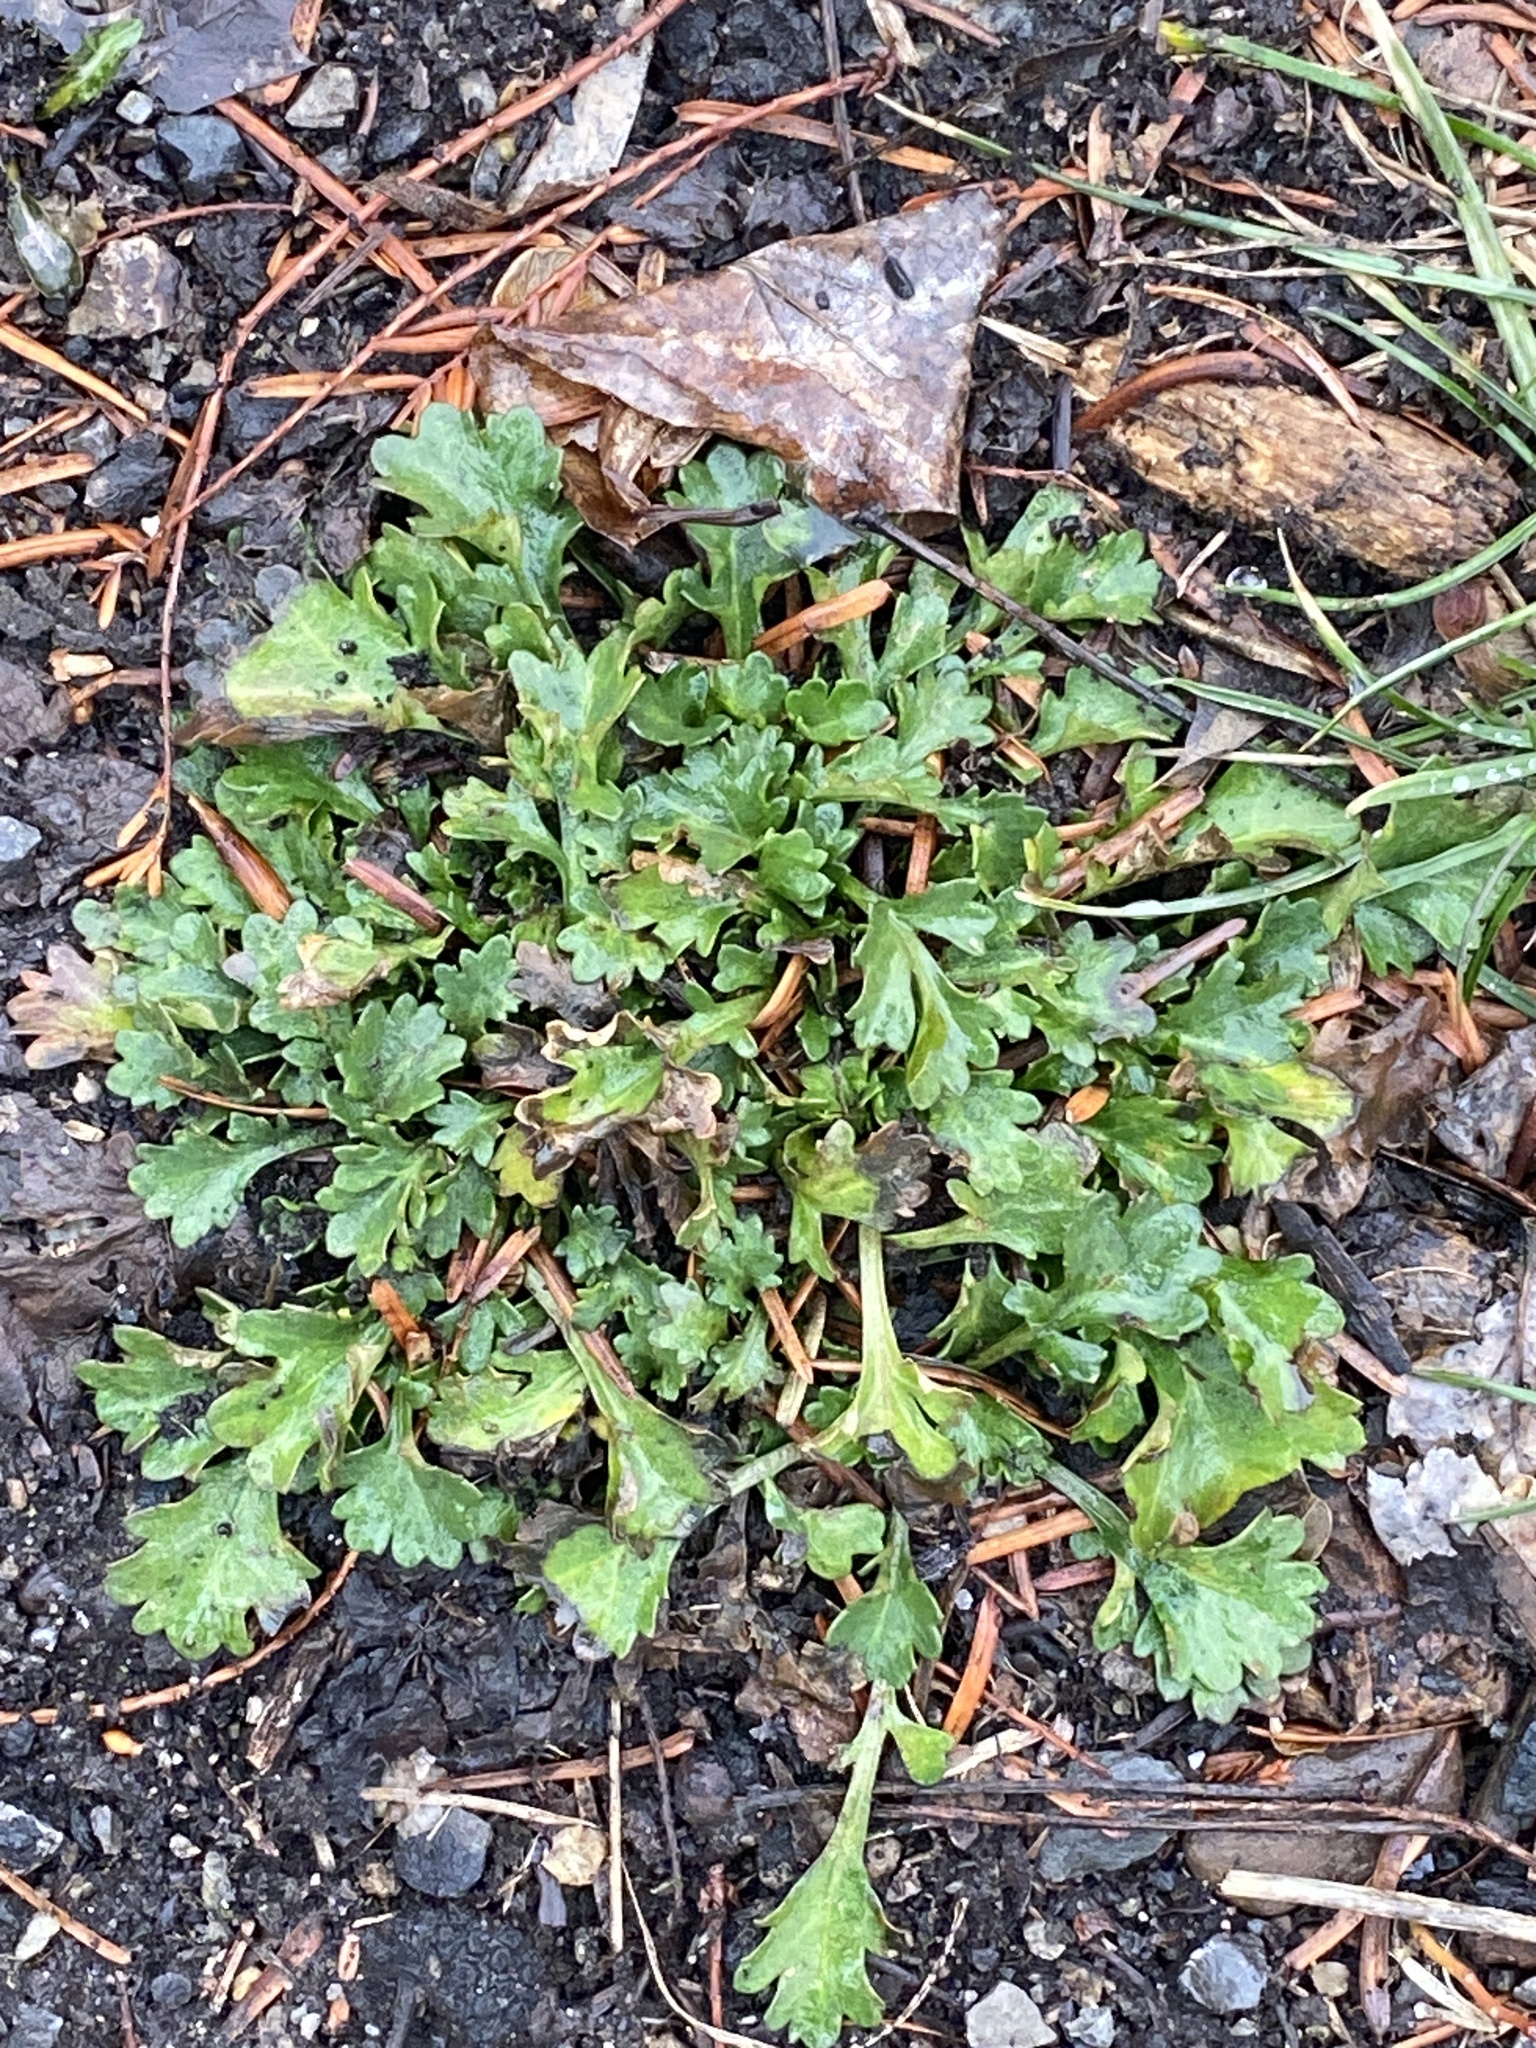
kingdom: Plantae
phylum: Tracheophyta
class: Magnoliopsida
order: Asterales
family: Asteraceae
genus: Leucanthemum
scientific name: Leucanthemum vulgare
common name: Oxeye daisy
